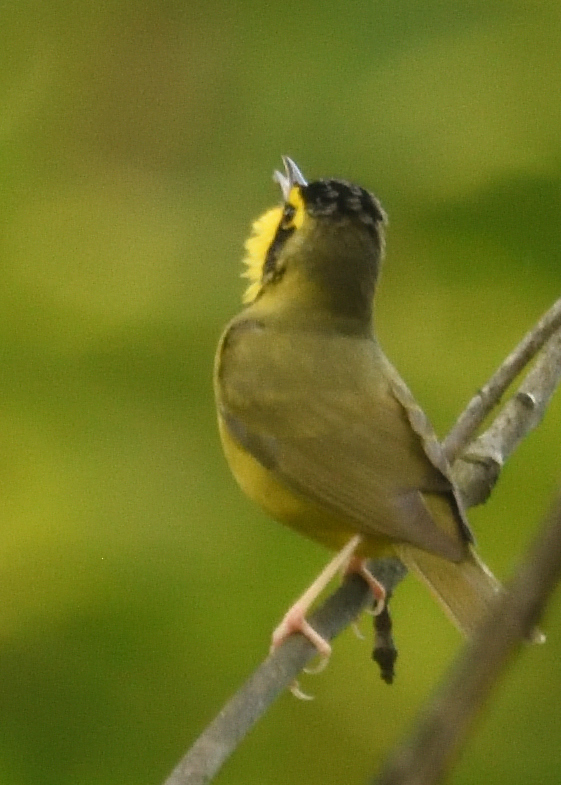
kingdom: Animalia
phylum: Chordata
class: Aves
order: Passeriformes
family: Parulidae
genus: Geothlypis
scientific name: Geothlypis formosa
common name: Kentucky warbler
